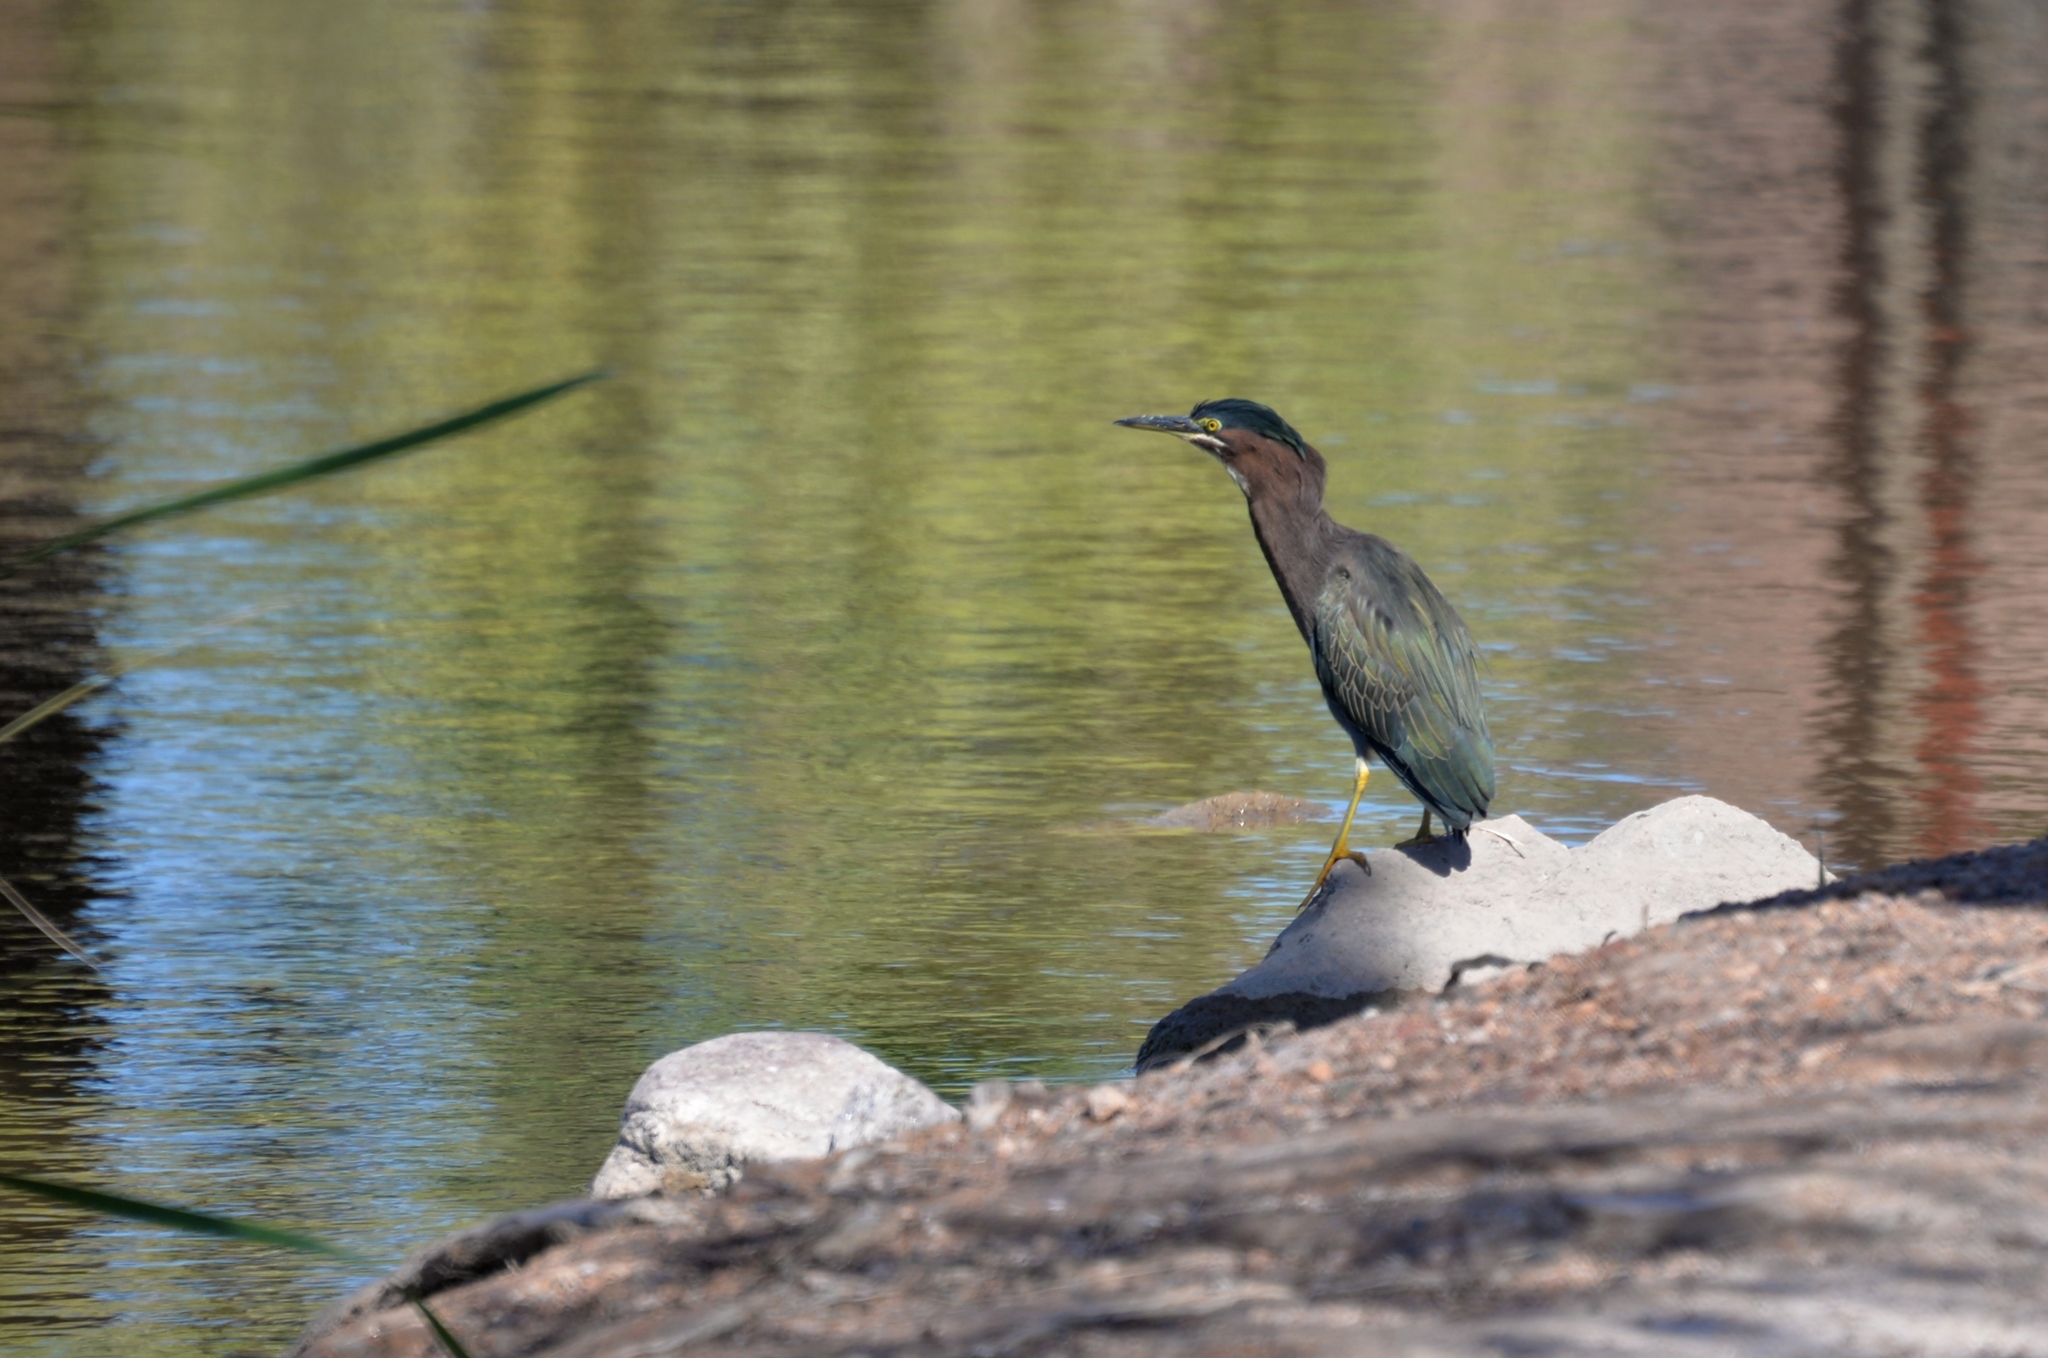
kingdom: Animalia
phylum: Chordata
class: Aves
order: Pelecaniformes
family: Ardeidae
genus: Butorides
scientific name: Butorides virescens
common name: Green heron
